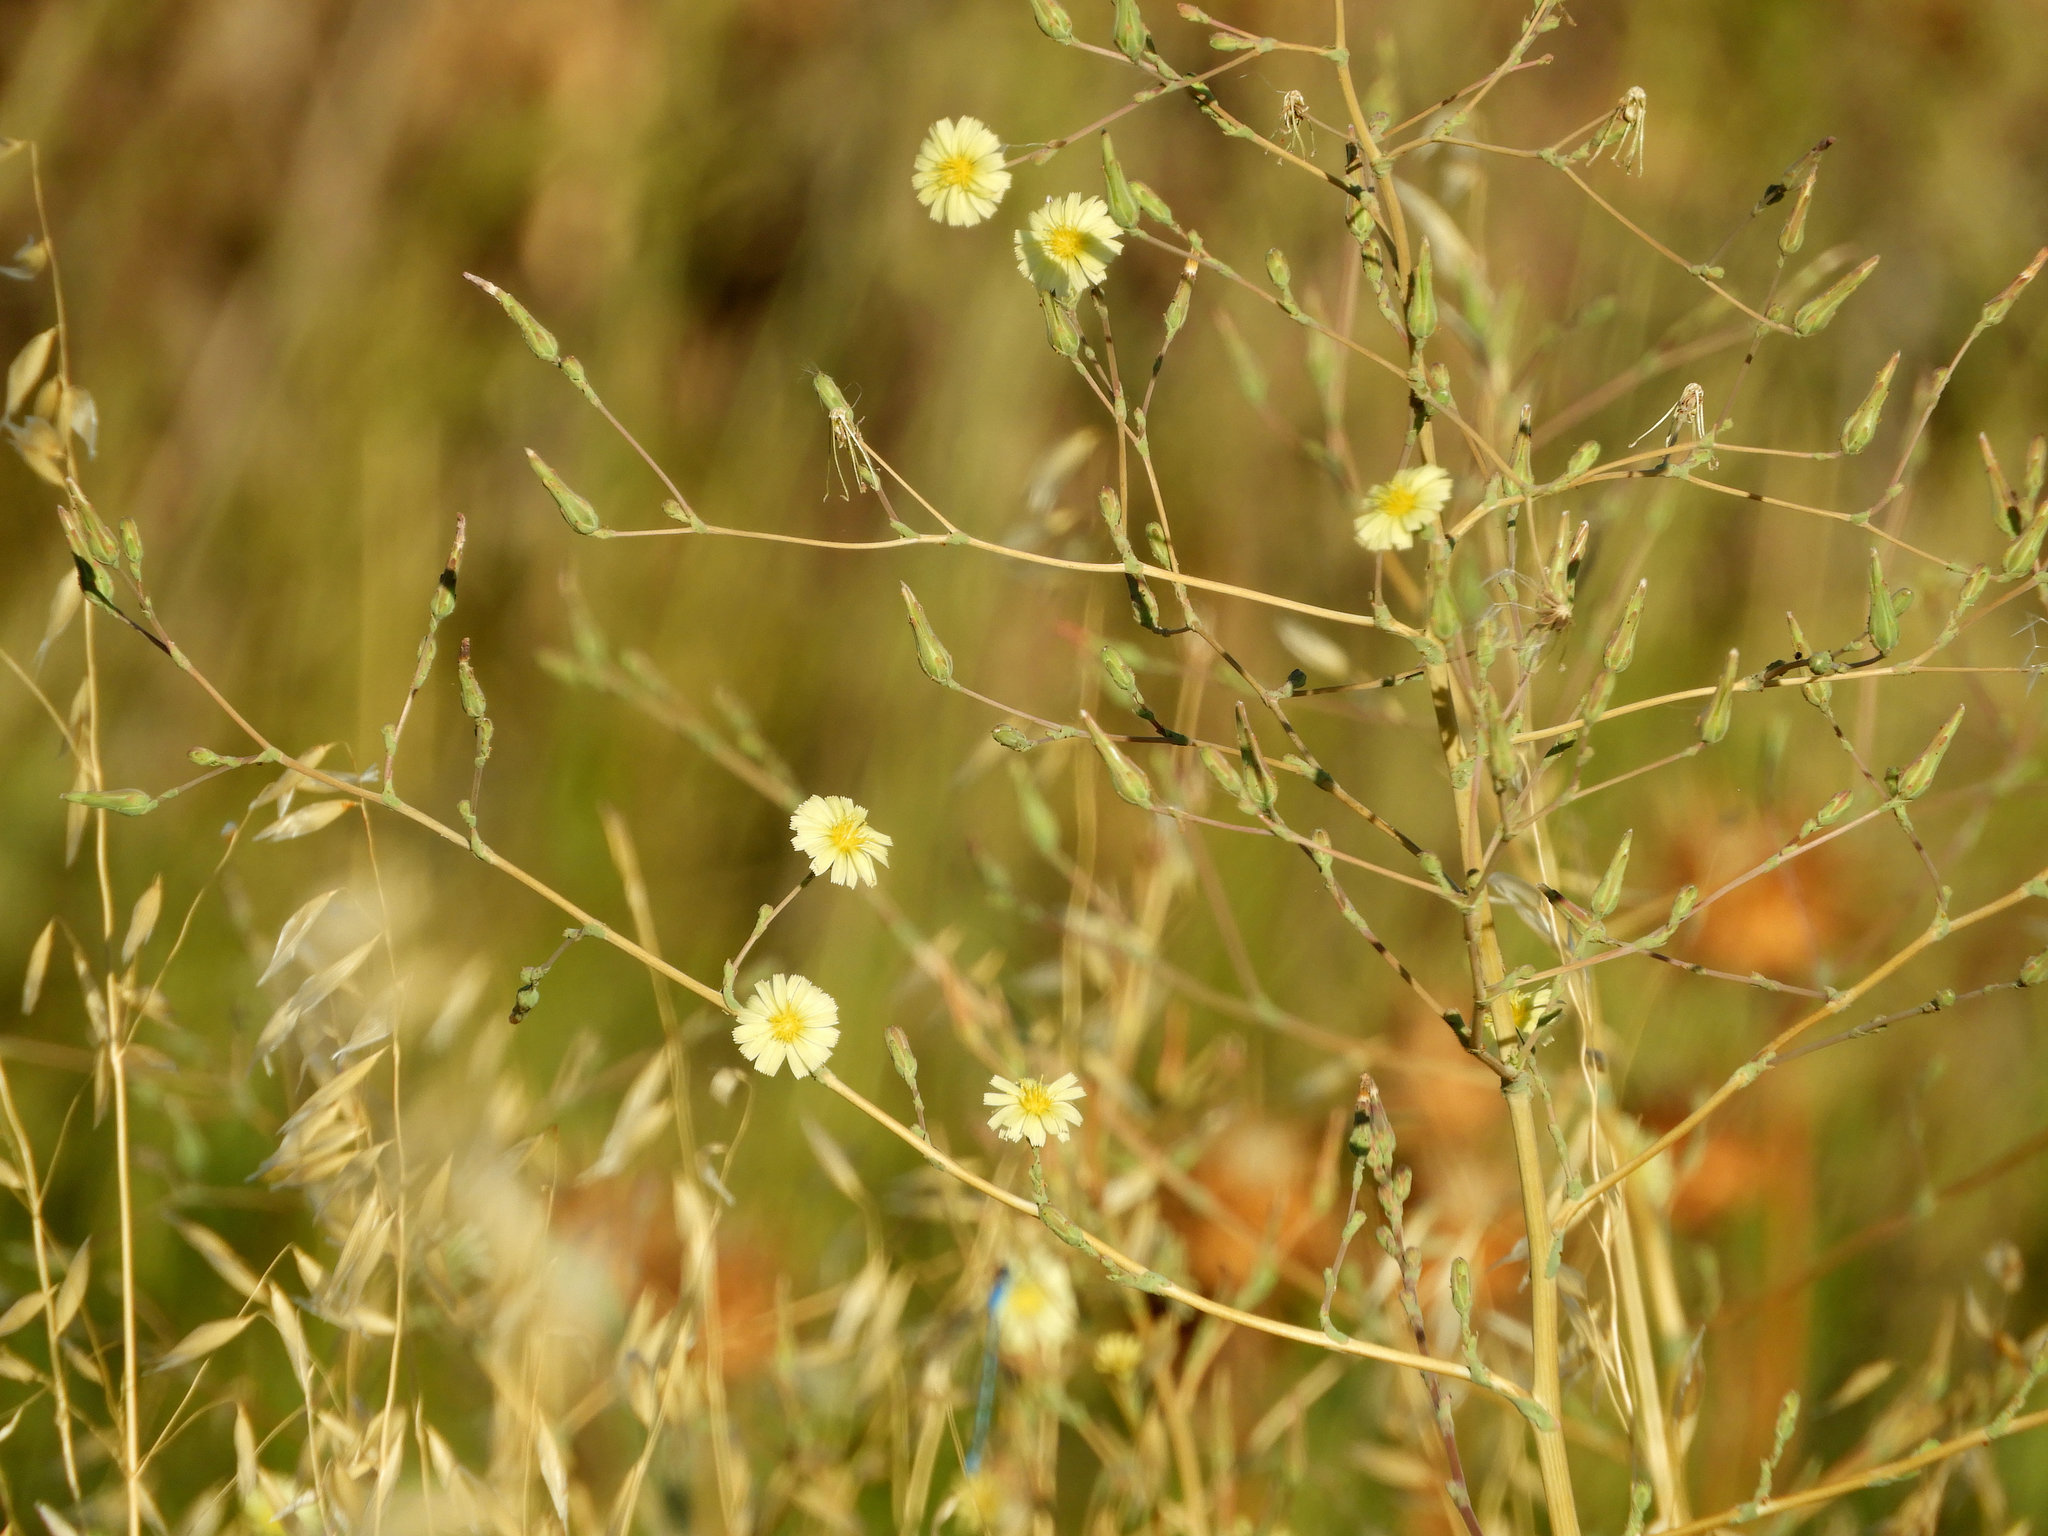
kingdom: Plantae
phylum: Tracheophyta
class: Magnoliopsida
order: Asterales
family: Asteraceae
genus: Lactuca
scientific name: Lactuca serriola
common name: Prickly lettuce
